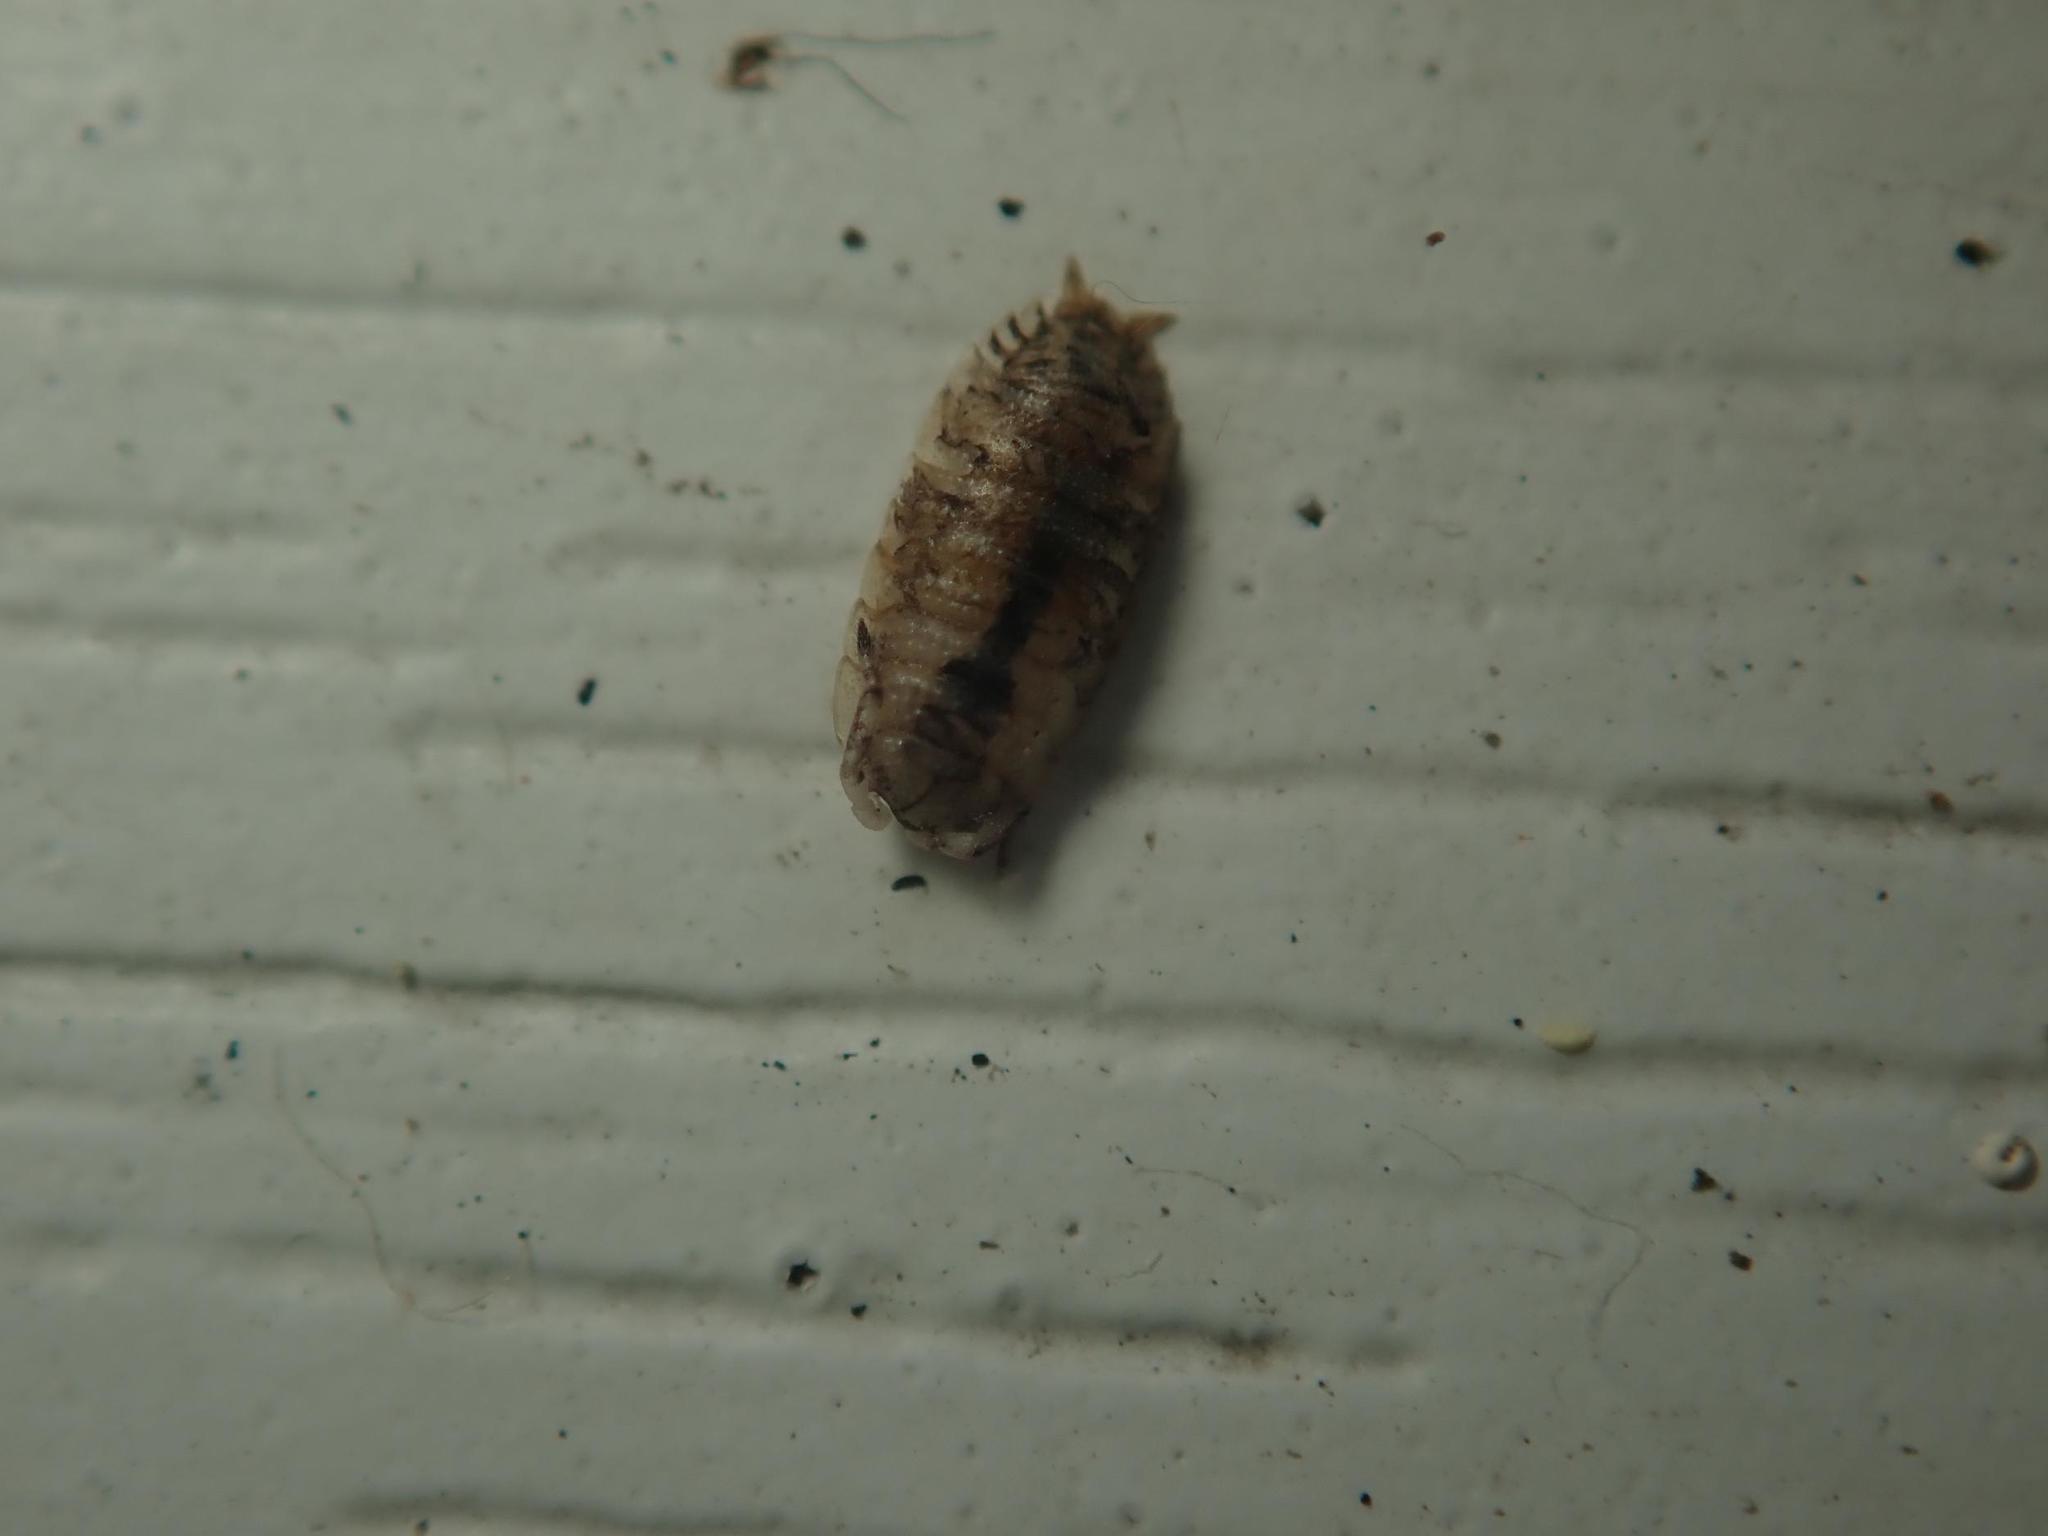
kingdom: Animalia
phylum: Arthropoda
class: Malacostraca
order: Isopoda
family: Porcellionidae
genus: Porcellio
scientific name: Porcellio scaber
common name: Common rough woodlouse
